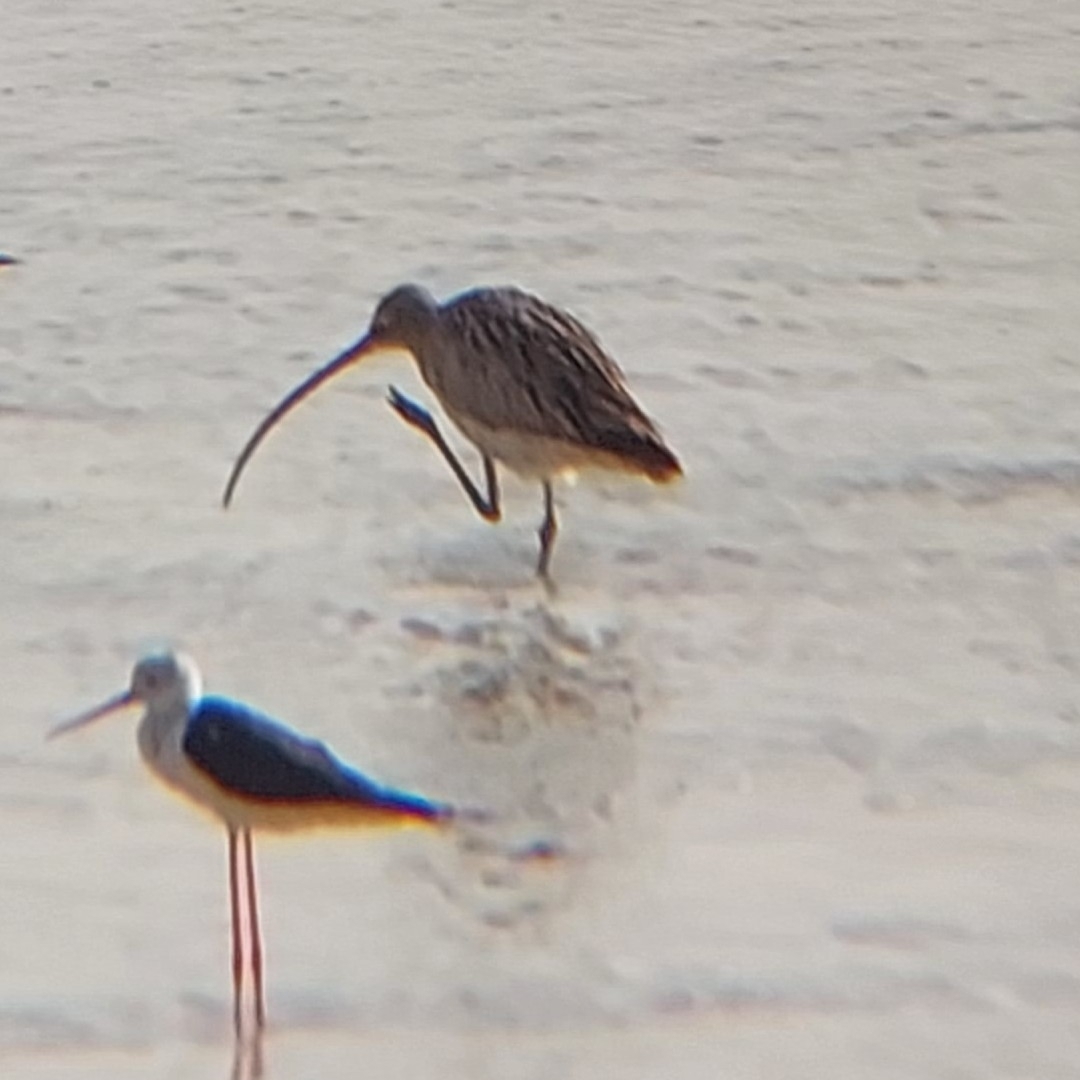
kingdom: Animalia
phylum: Chordata
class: Aves
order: Charadriiformes
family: Scolopacidae
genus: Numenius
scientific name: Numenius arquata
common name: Eurasian curlew
